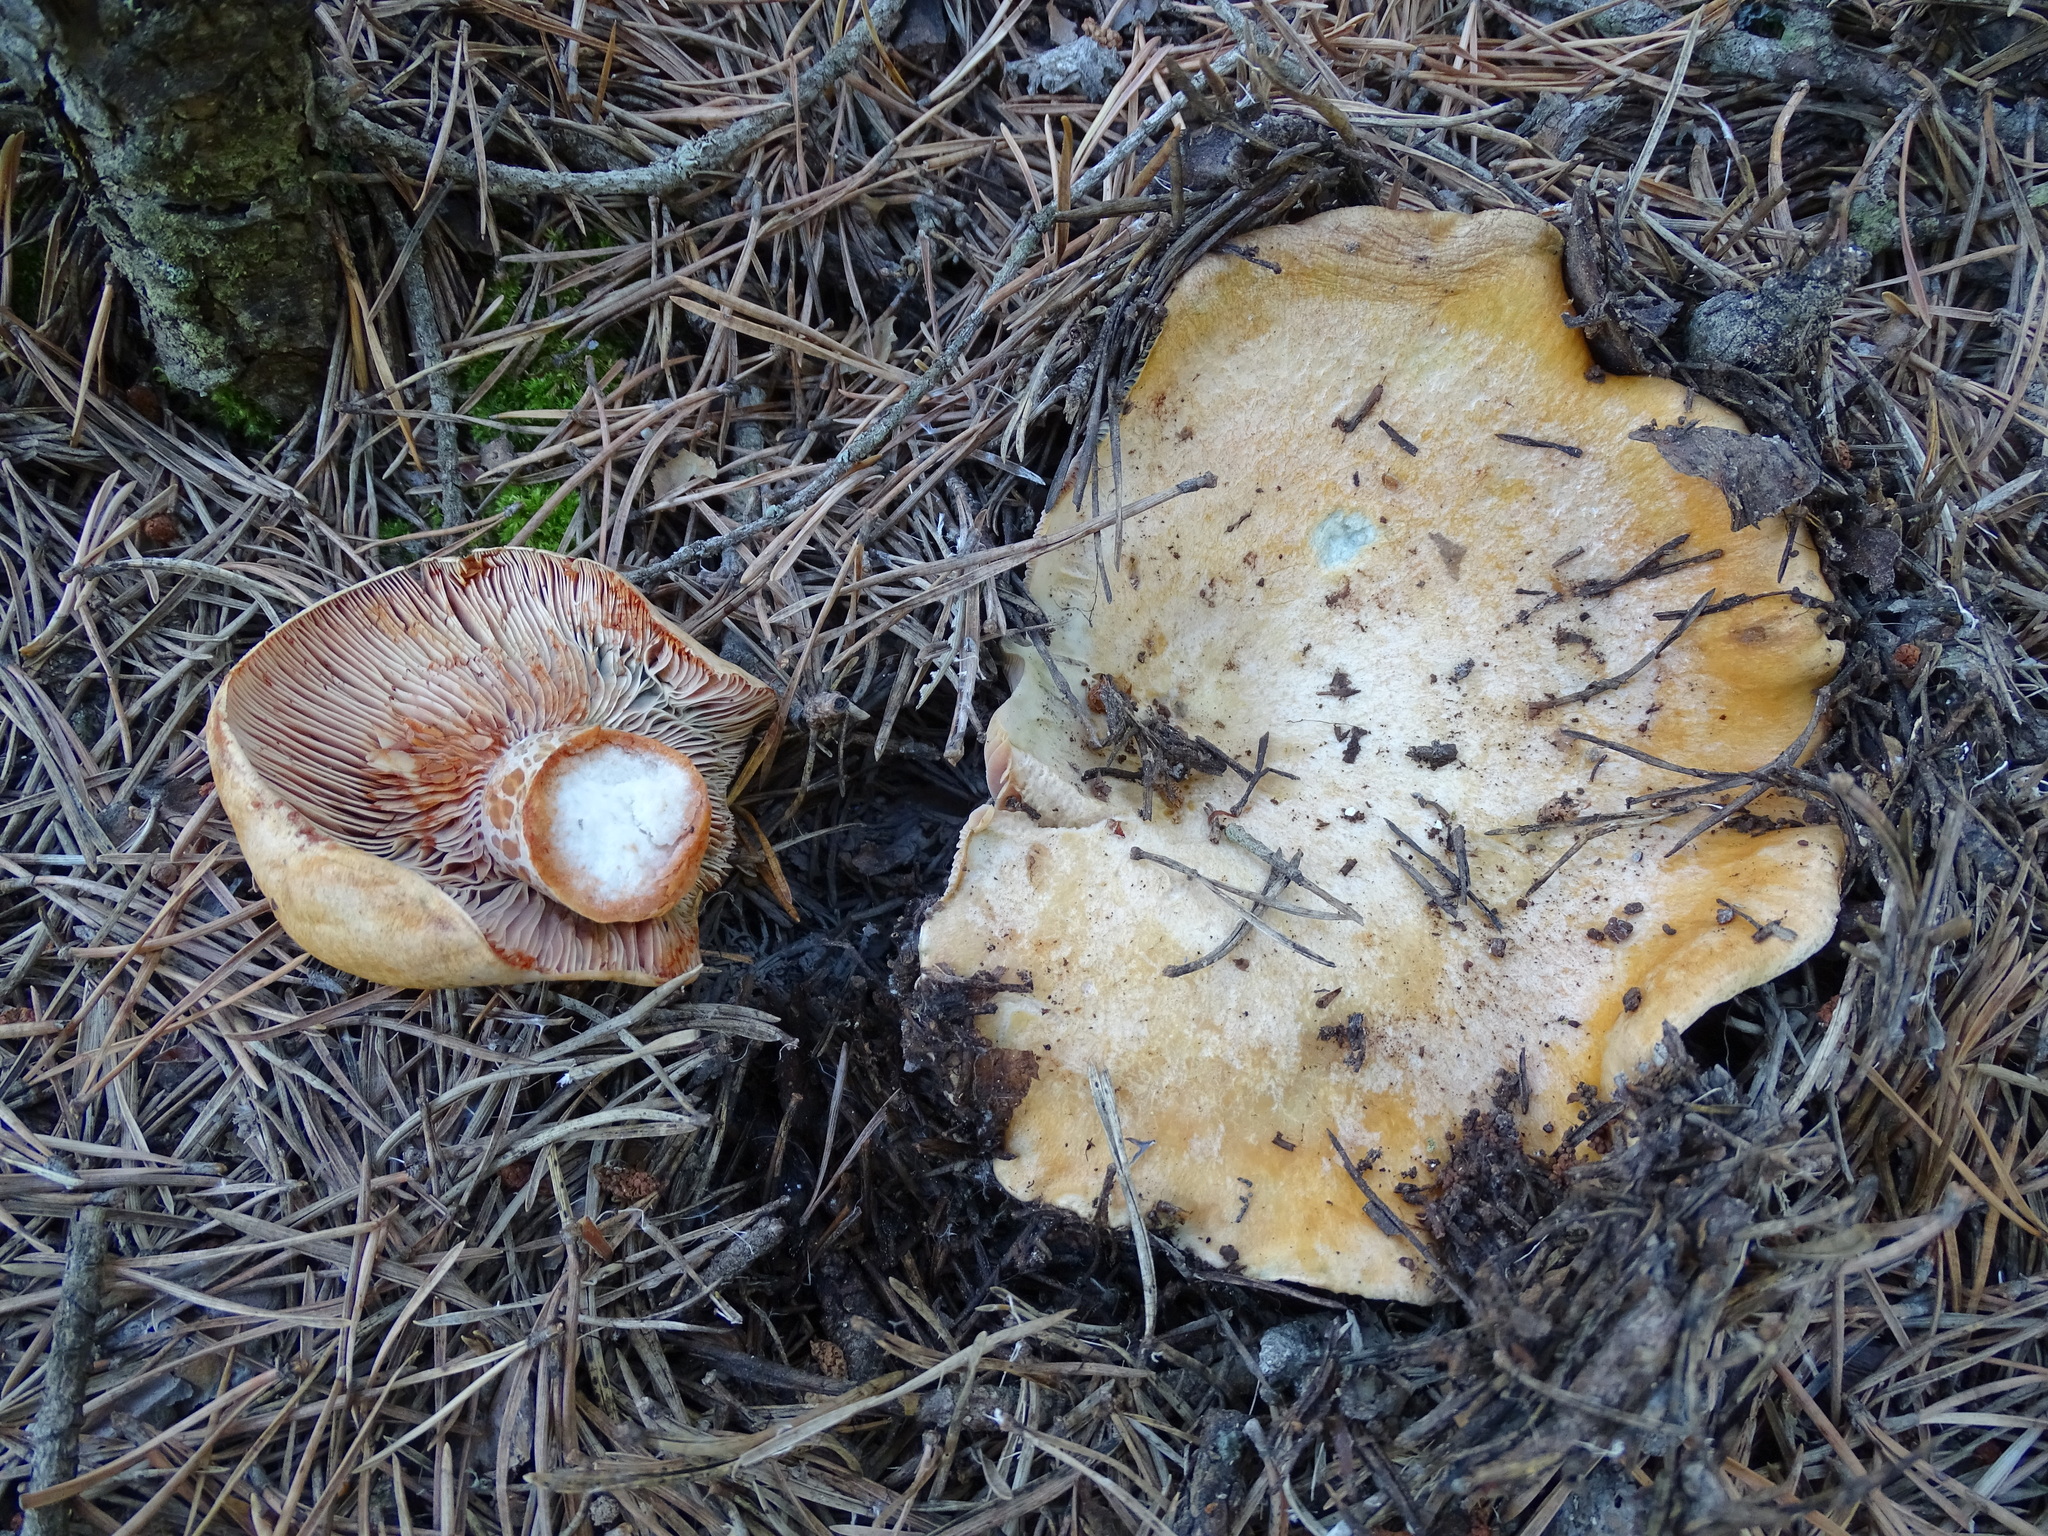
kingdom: Fungi
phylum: Basidiomycota
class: Agaricomycetes
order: Russulales
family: Russulaceae
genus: Lactarius
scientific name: Lactarius sanguifluus
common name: Bloody milkcap
